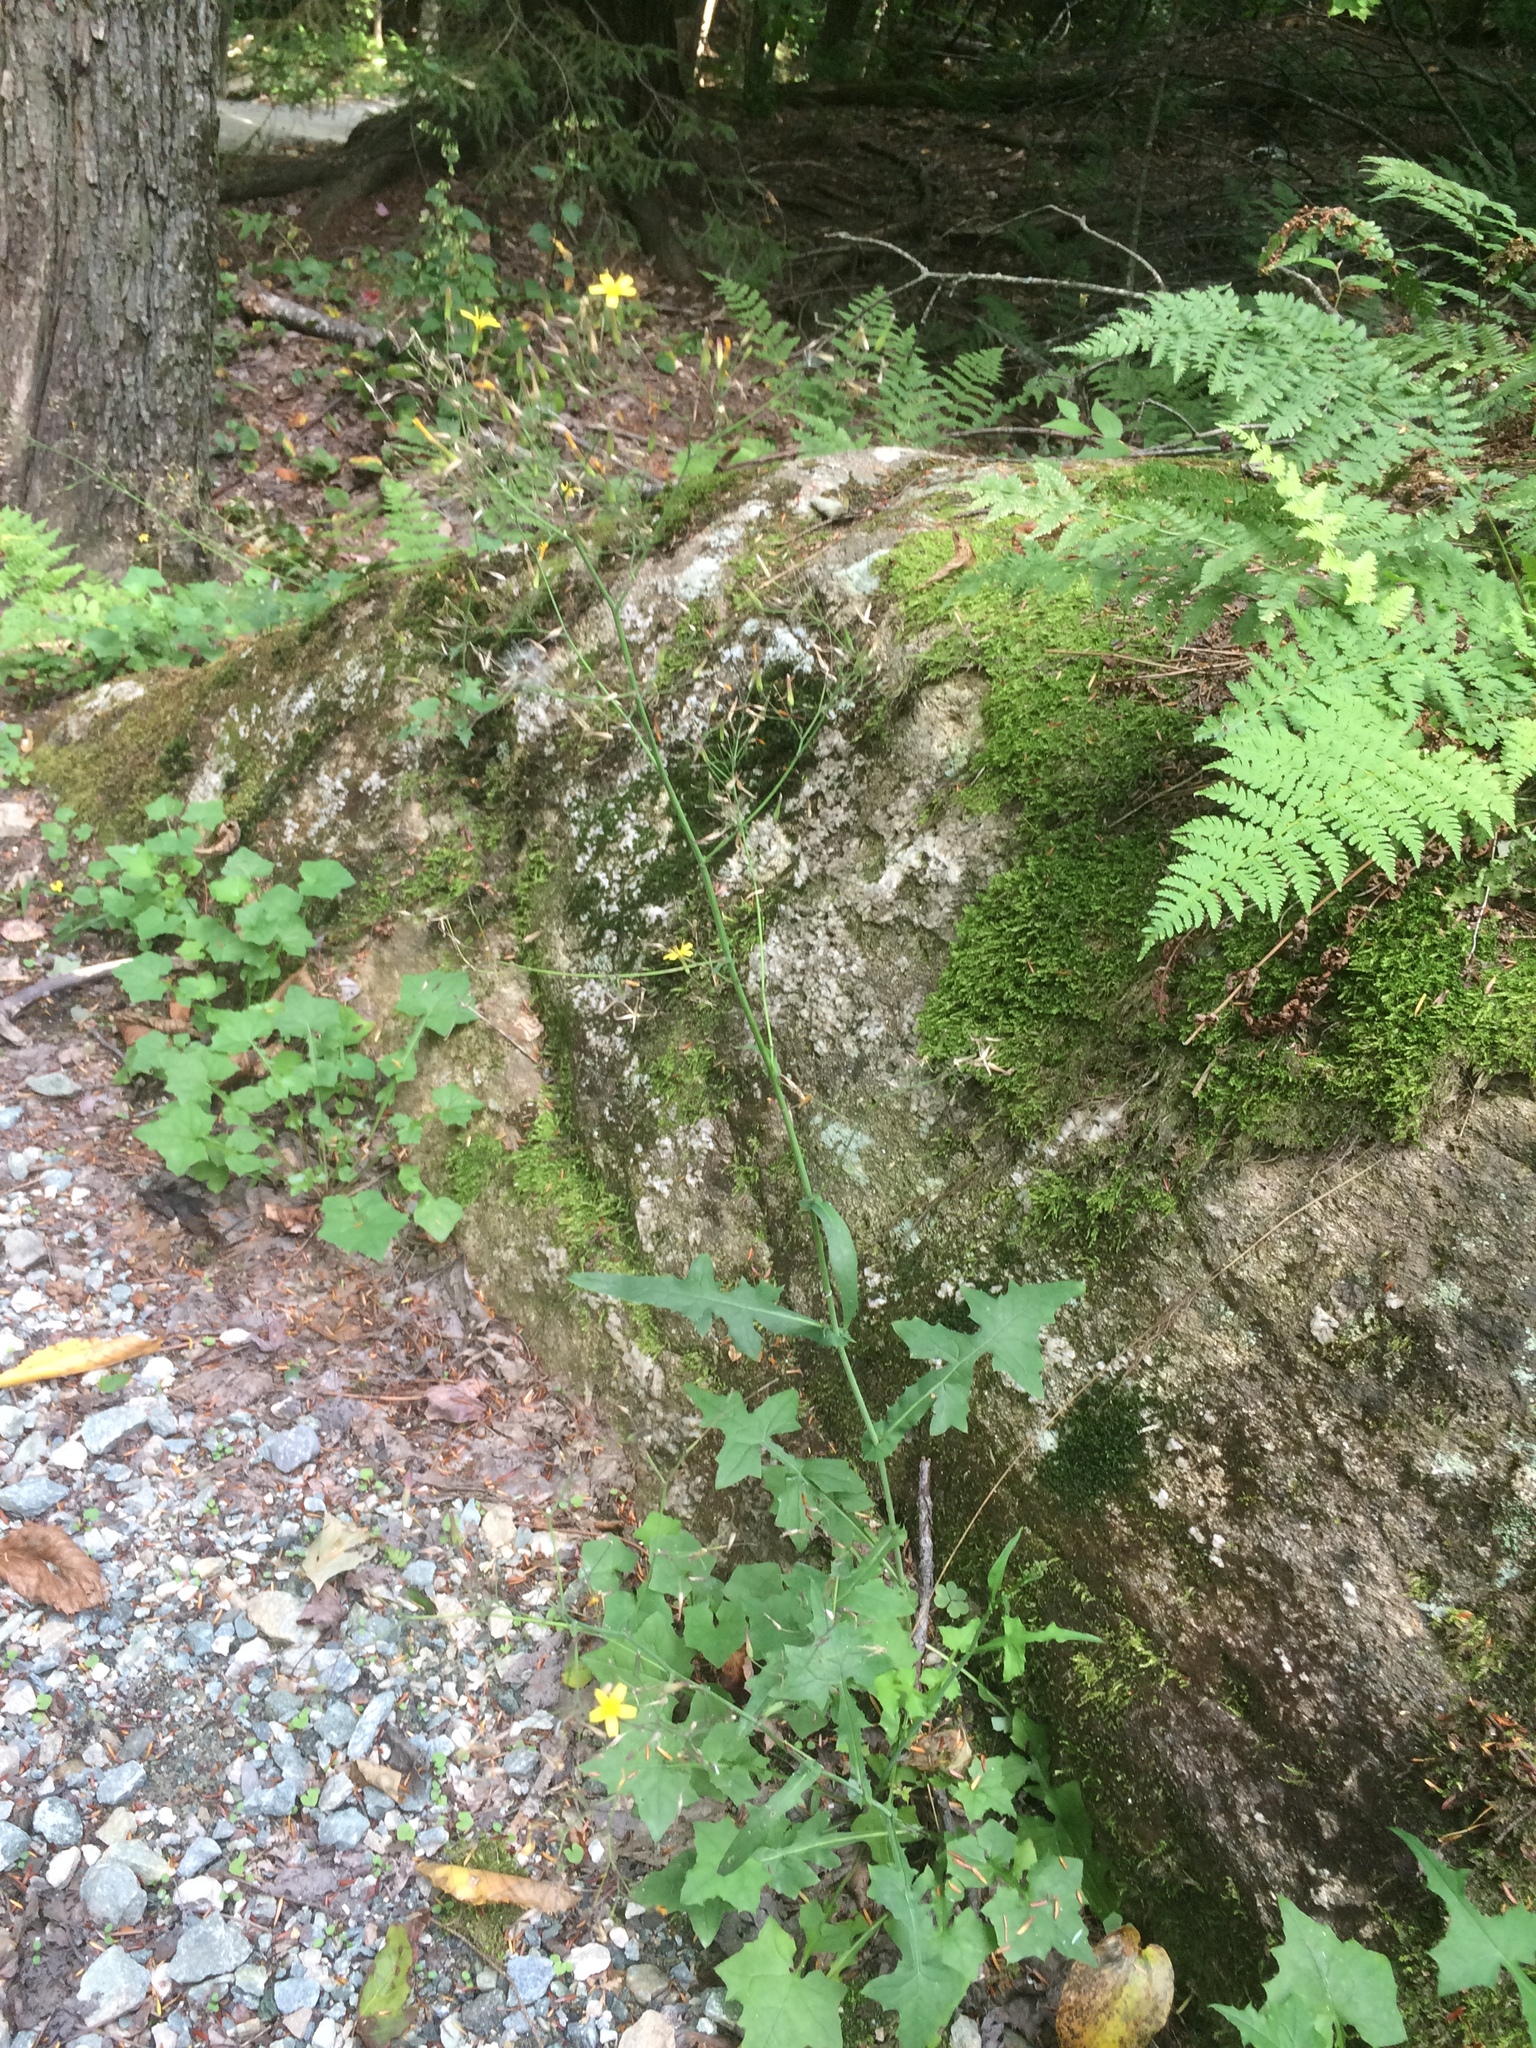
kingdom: Plantae
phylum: Tracheophyta
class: Magnoliopsida
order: Asterales
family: Asteraceae
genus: Mycelis
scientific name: Mycelis muralis
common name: Wall lettuce
